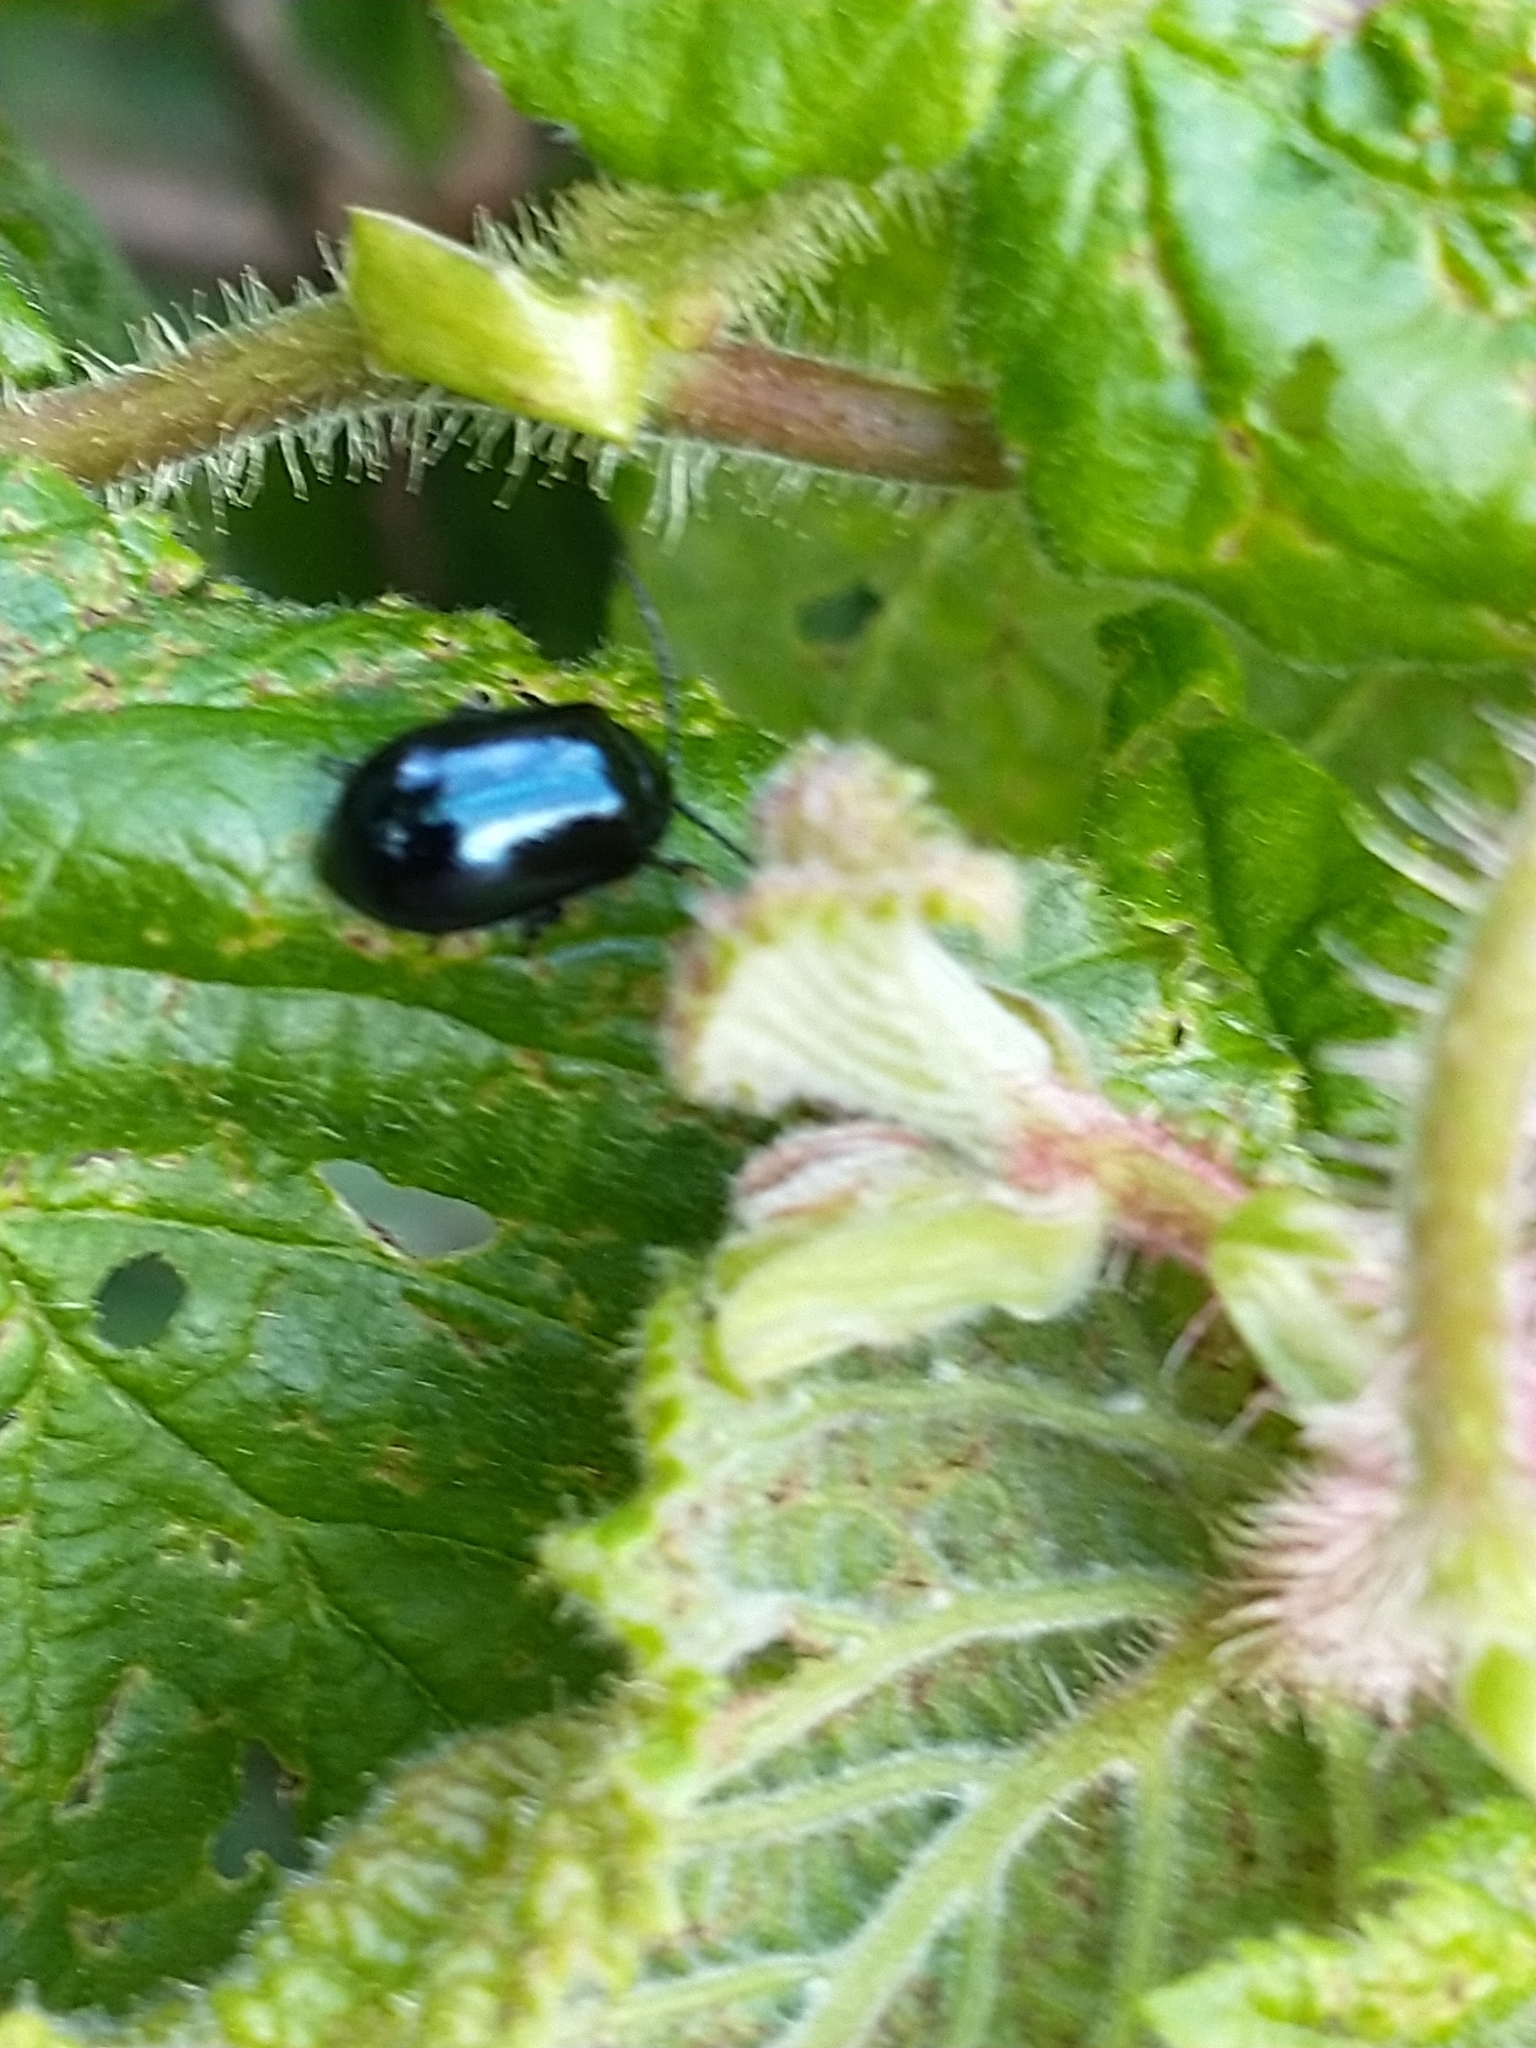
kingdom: Animalia
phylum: Arthropoda
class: Insecta
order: Coleoptera
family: Chrysomelidae
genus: Agelastica
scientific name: Agelastica alni
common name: Alder leaf beetle
